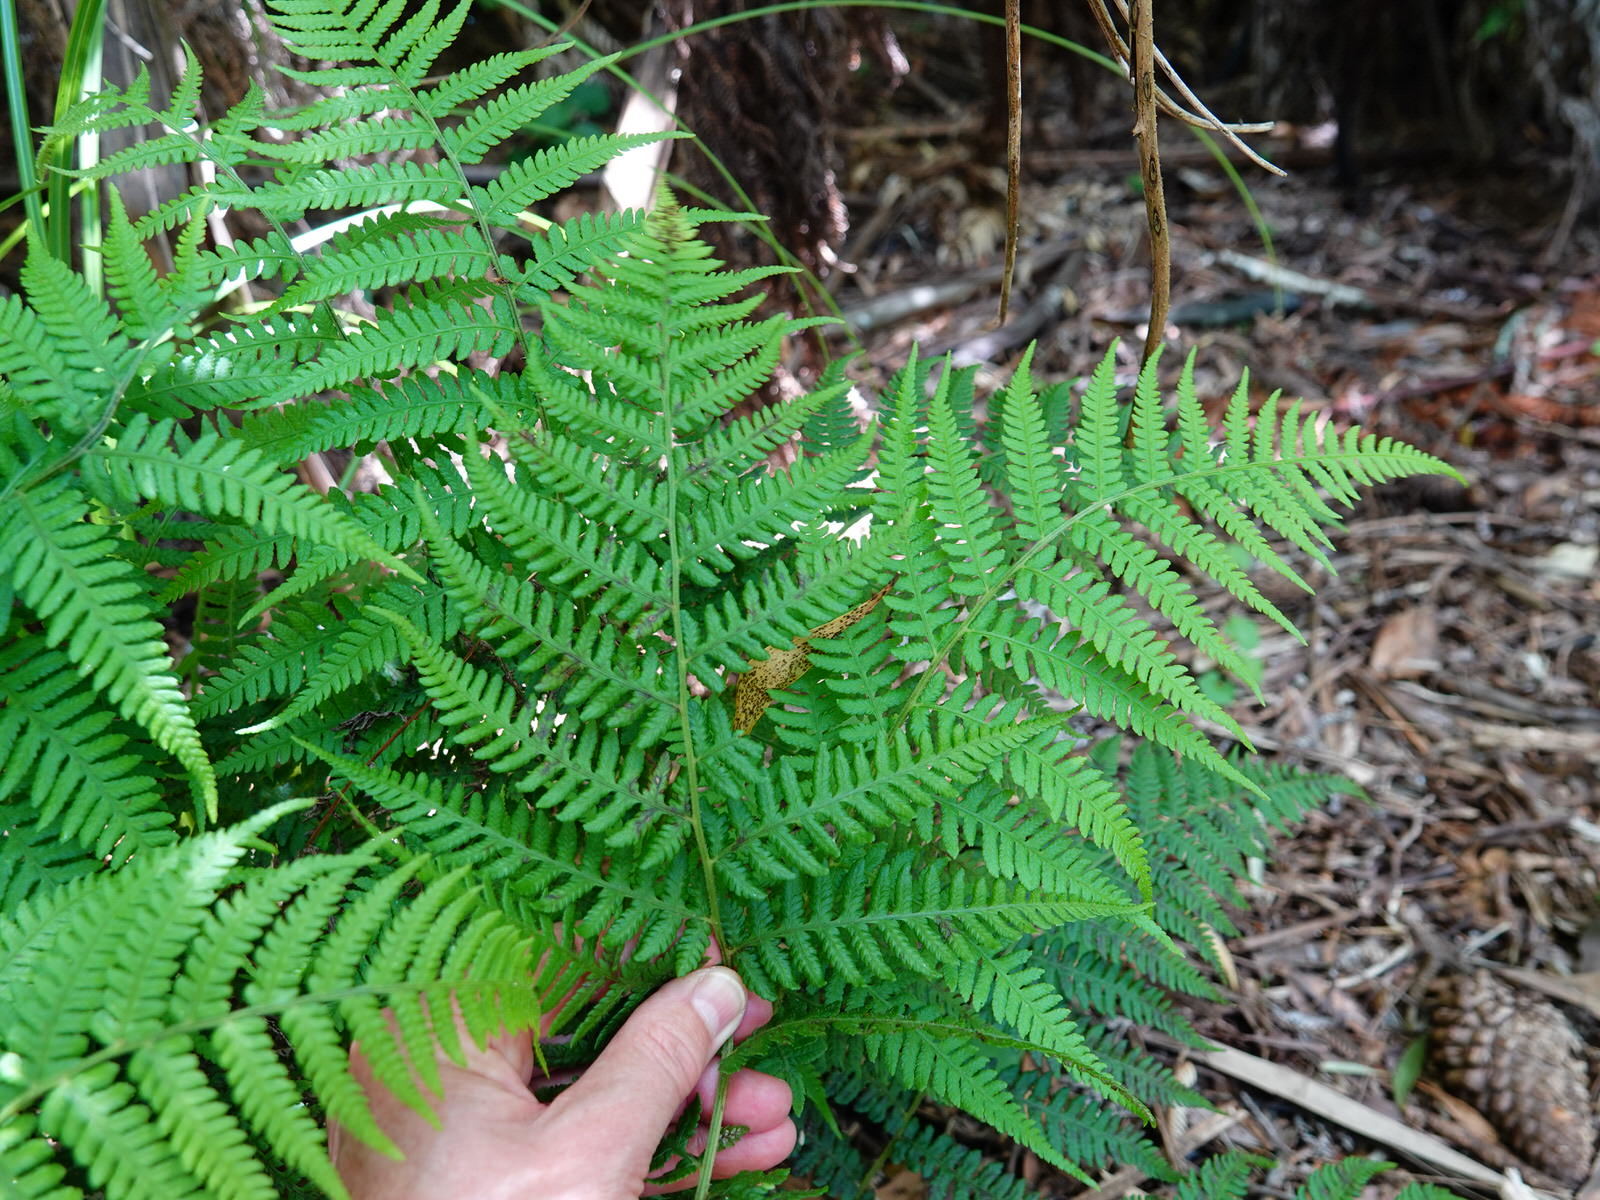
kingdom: Plantae
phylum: Tracheophyta
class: Polypodiopsida
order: Polypodiales
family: Athyriaceae
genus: Diplazium
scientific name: Diplazium congruum
